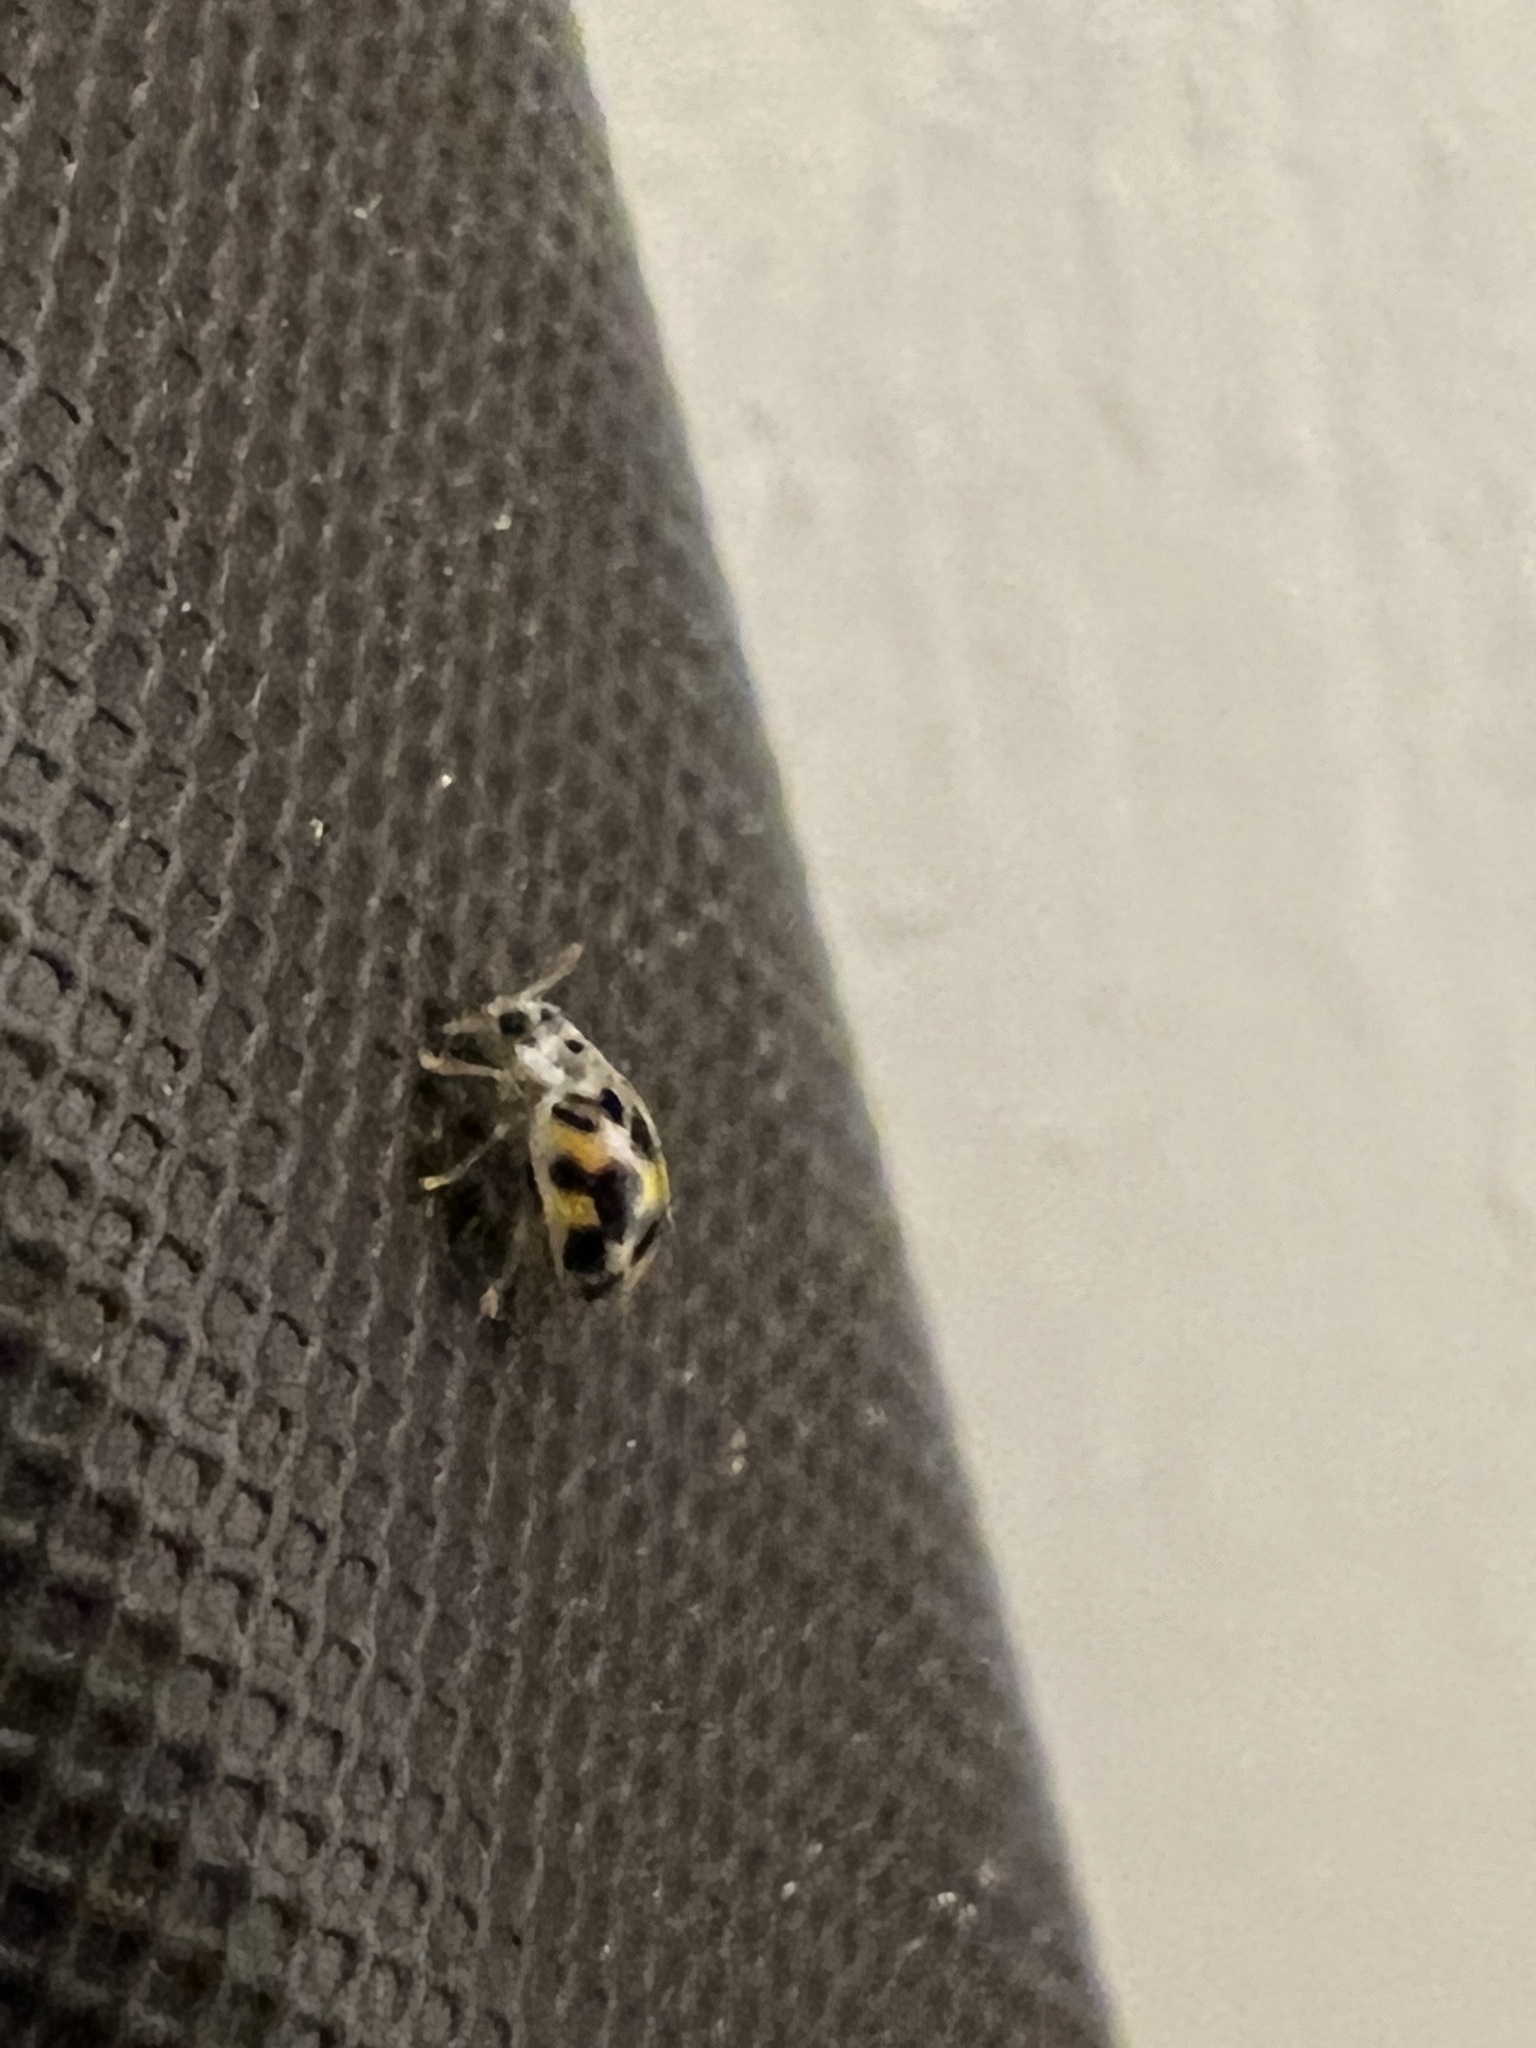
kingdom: Animalia
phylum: Arthropoda
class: Insecta
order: Coleoptera
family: Coccinellidae
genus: Psyllobora
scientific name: Psyllobora vigintimaculata
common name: Ladybird beetle
